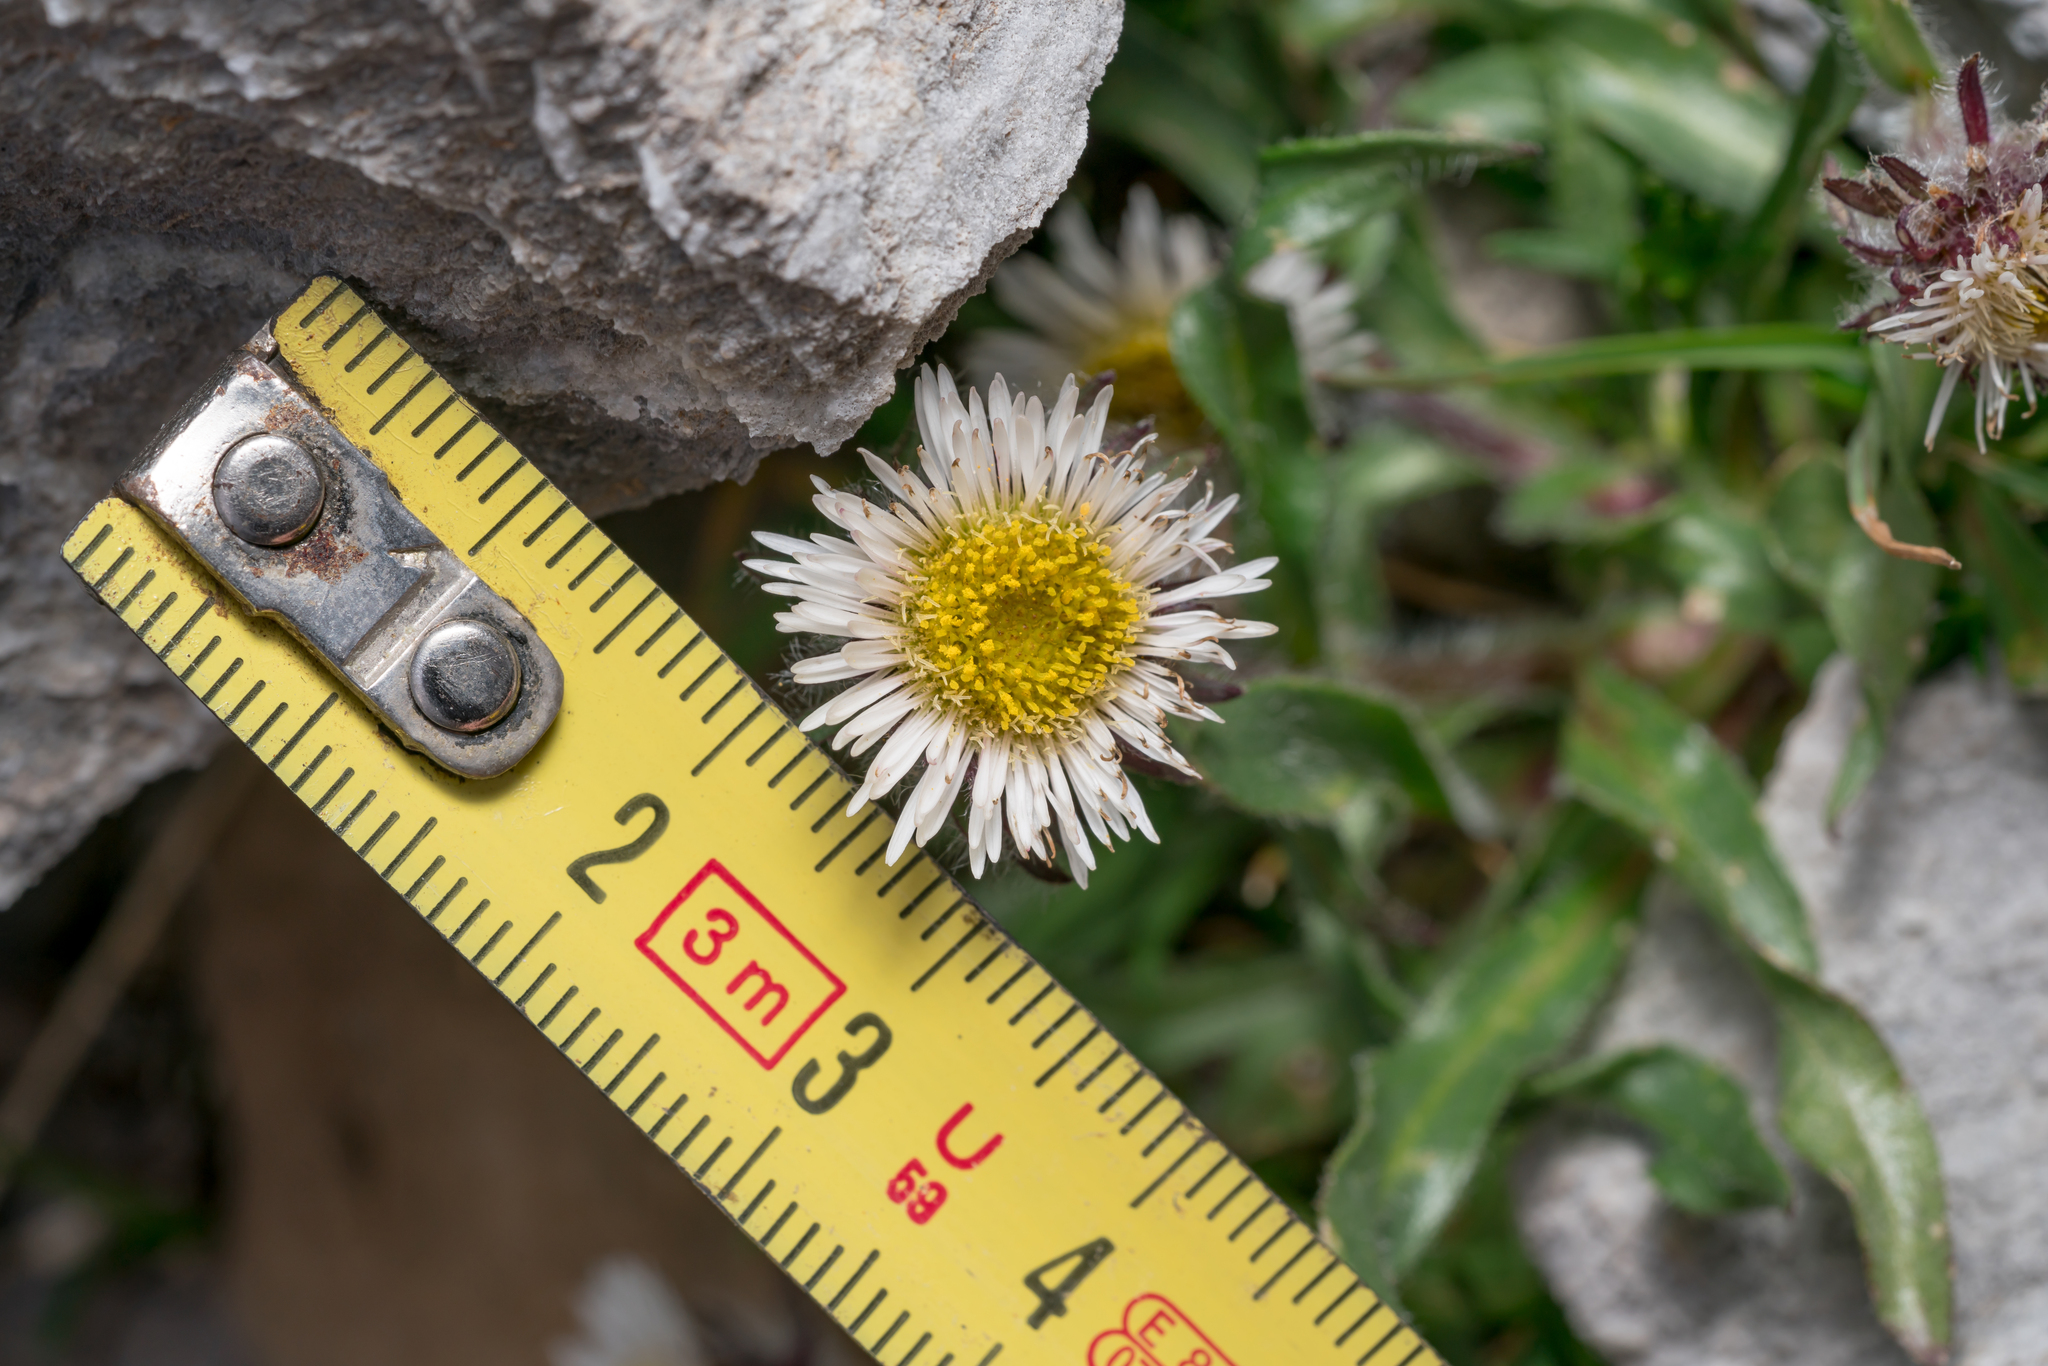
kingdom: Plantae
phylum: Tracheophyta
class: Magnoliopsida
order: Asterales
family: Asteraceae
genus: Erigeron
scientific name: Erigeron uniflorus
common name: Northern daisy
